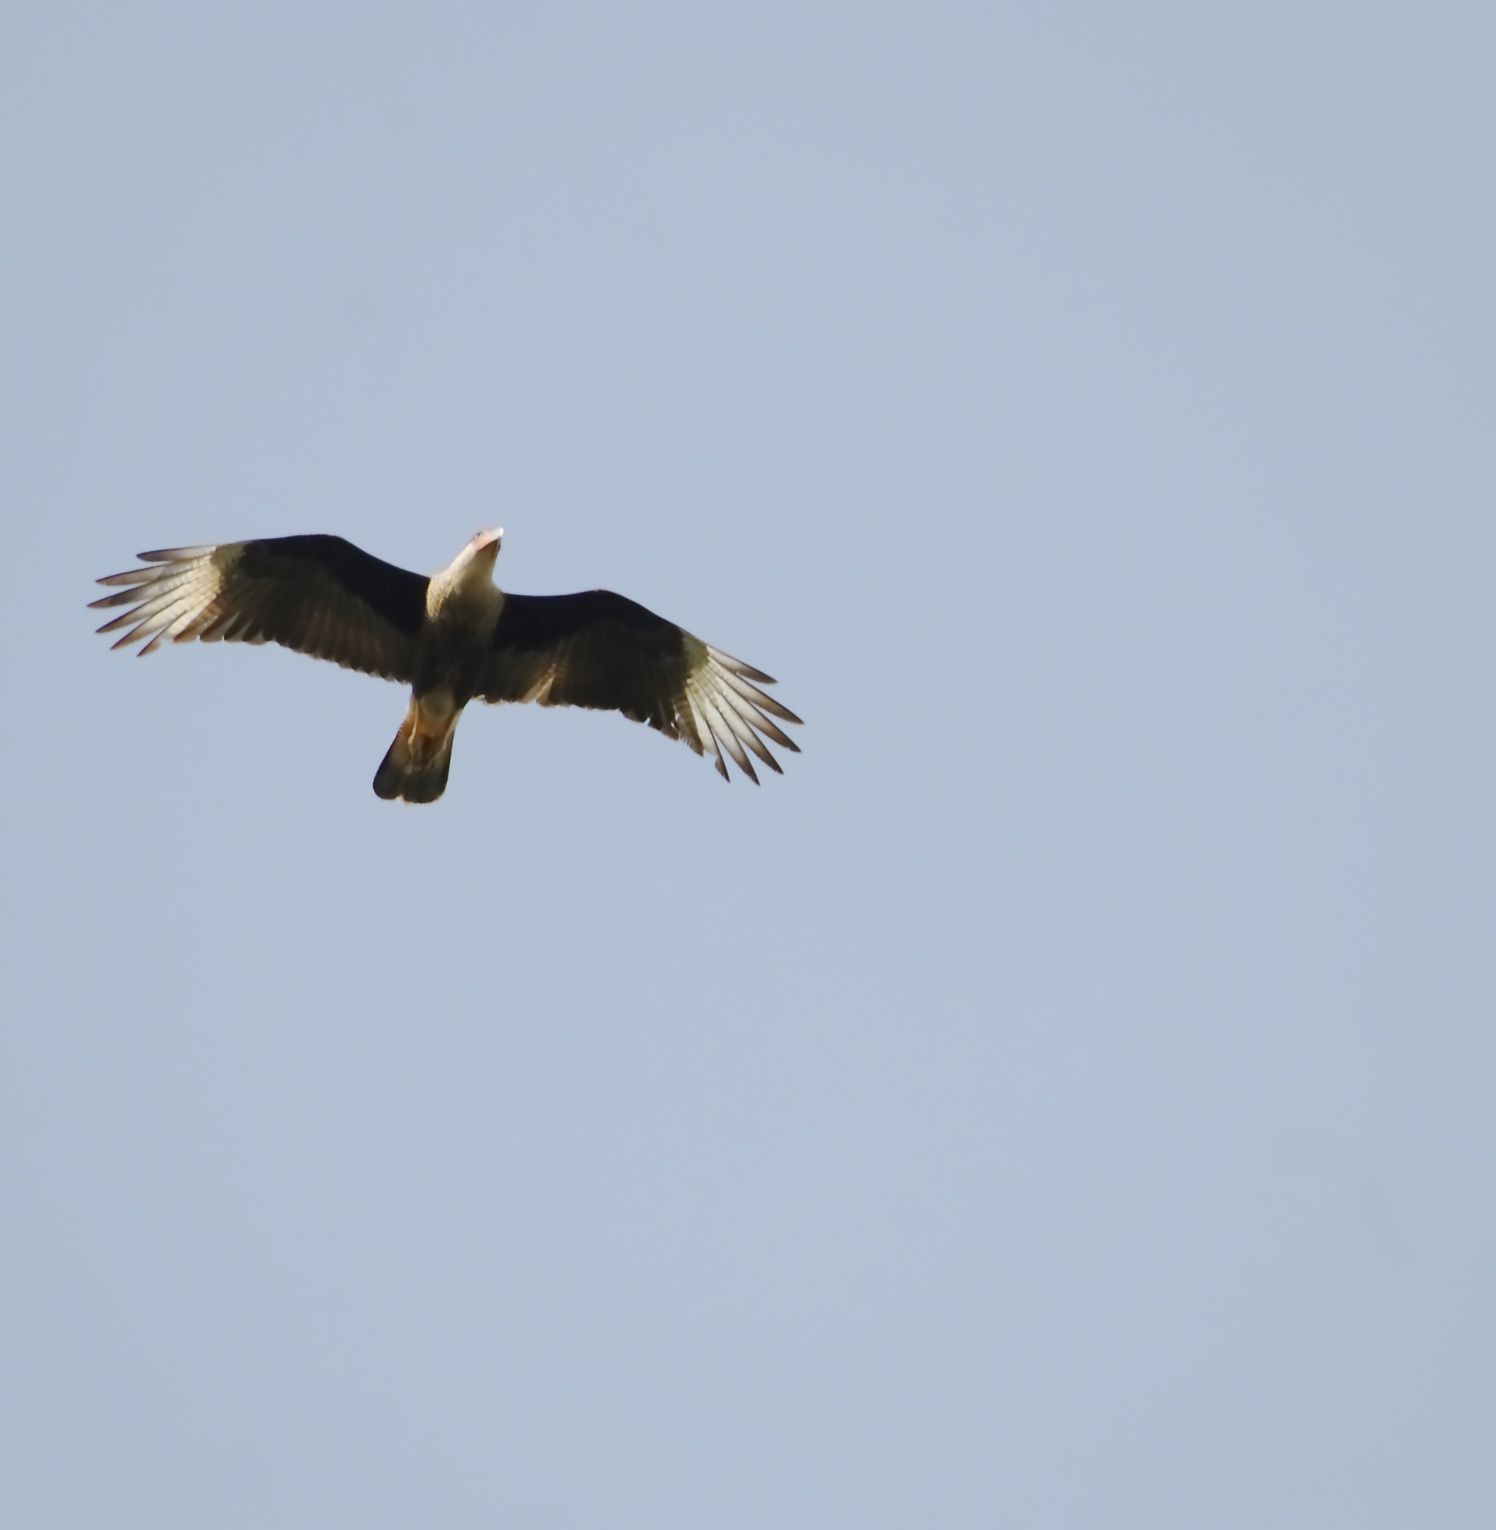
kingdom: Animalia
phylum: Chordata
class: Aves
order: Falconiformes
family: Falconidae
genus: Caracara
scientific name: Caracara plancus
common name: Southern caracara
